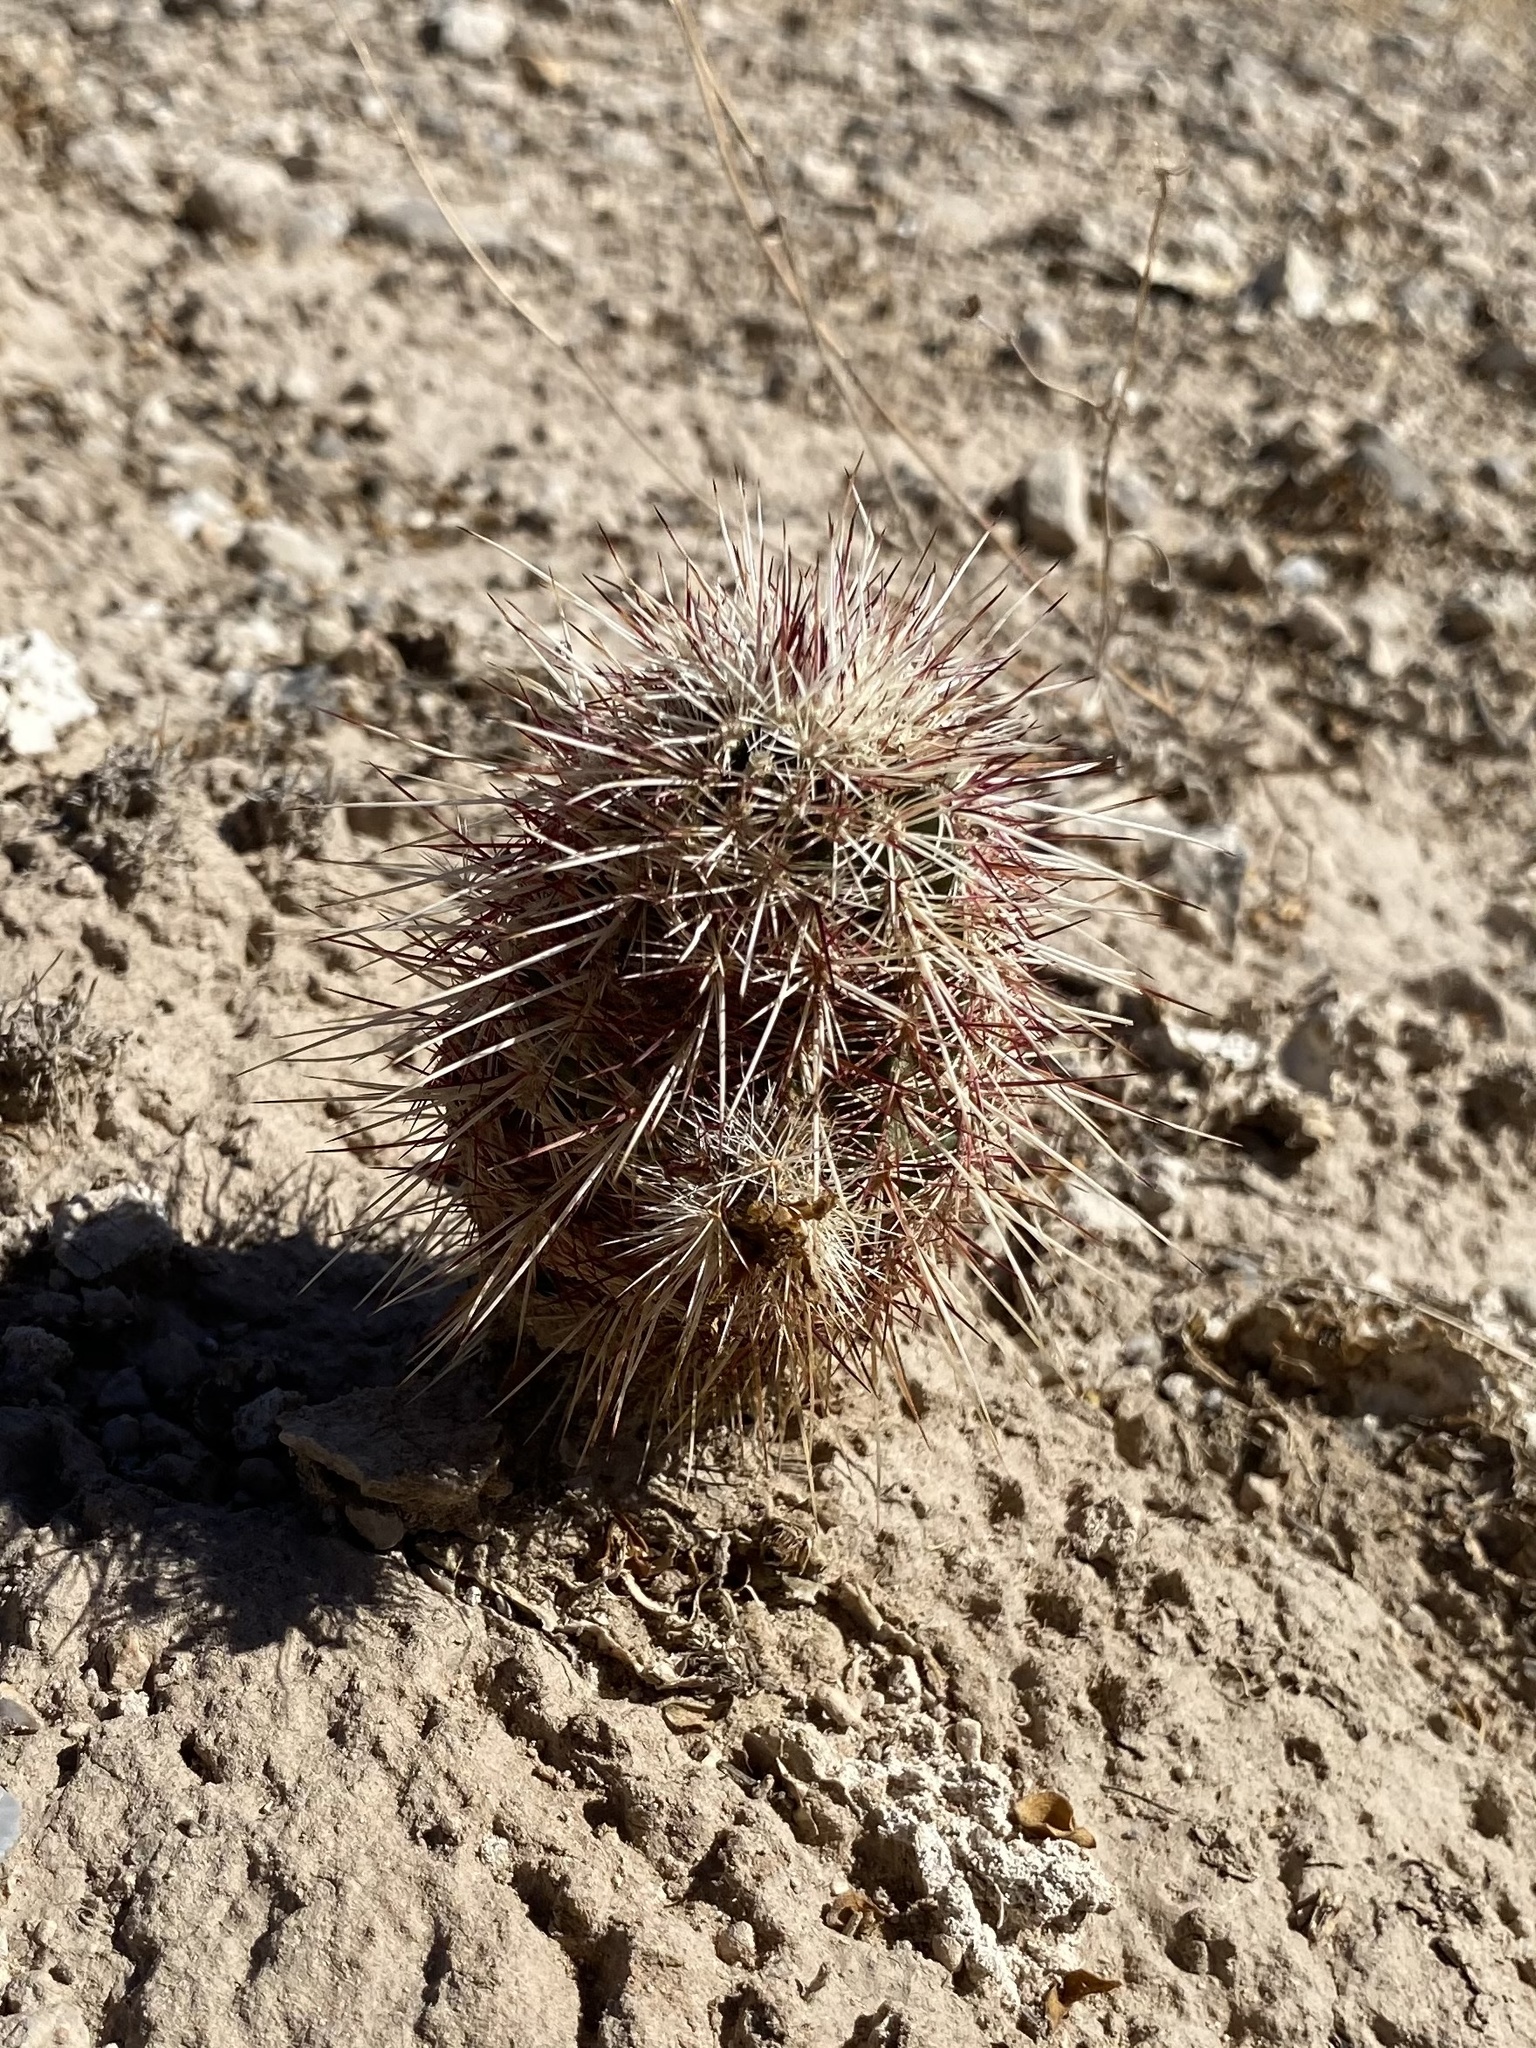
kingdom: Plantae
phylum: Tracheophyta
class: Magnoliopsida
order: Caryophyllales
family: Cactaceae
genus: Echinocereus
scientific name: Echinocereus viridiflorus
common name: Nylon hedgehog cactus
